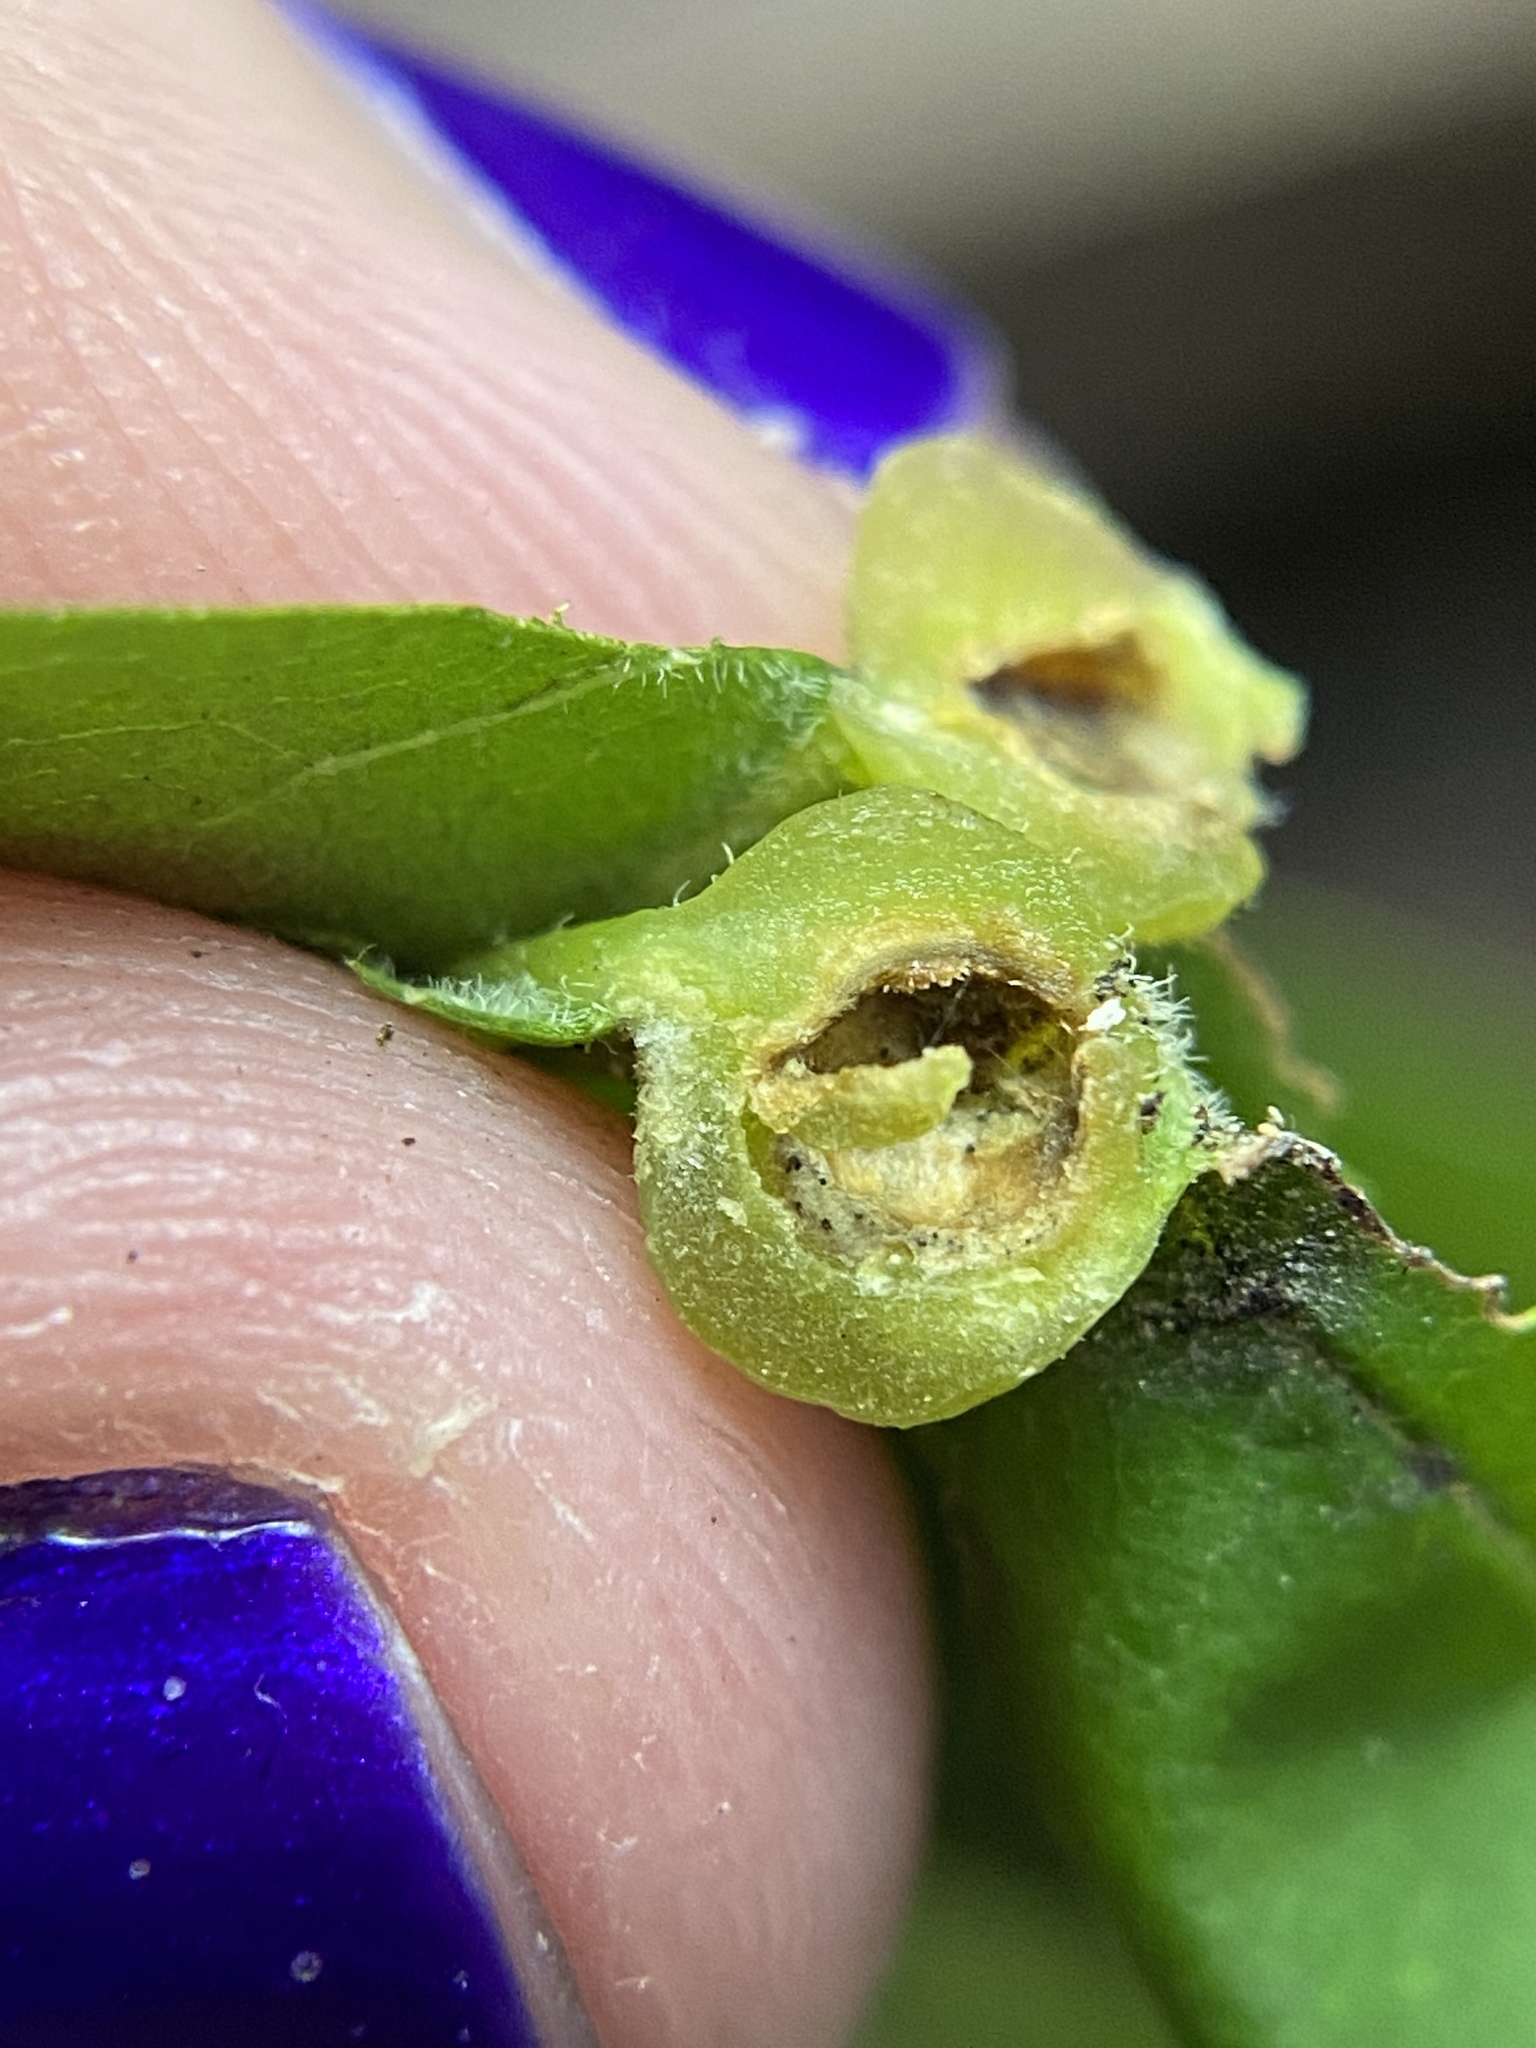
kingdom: Animalia
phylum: Arthropoda
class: Insecta
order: Diptera
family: Cecidomyiidae
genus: Dasineura
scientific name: Dasineura pellex
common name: Ash bullet gall midge
